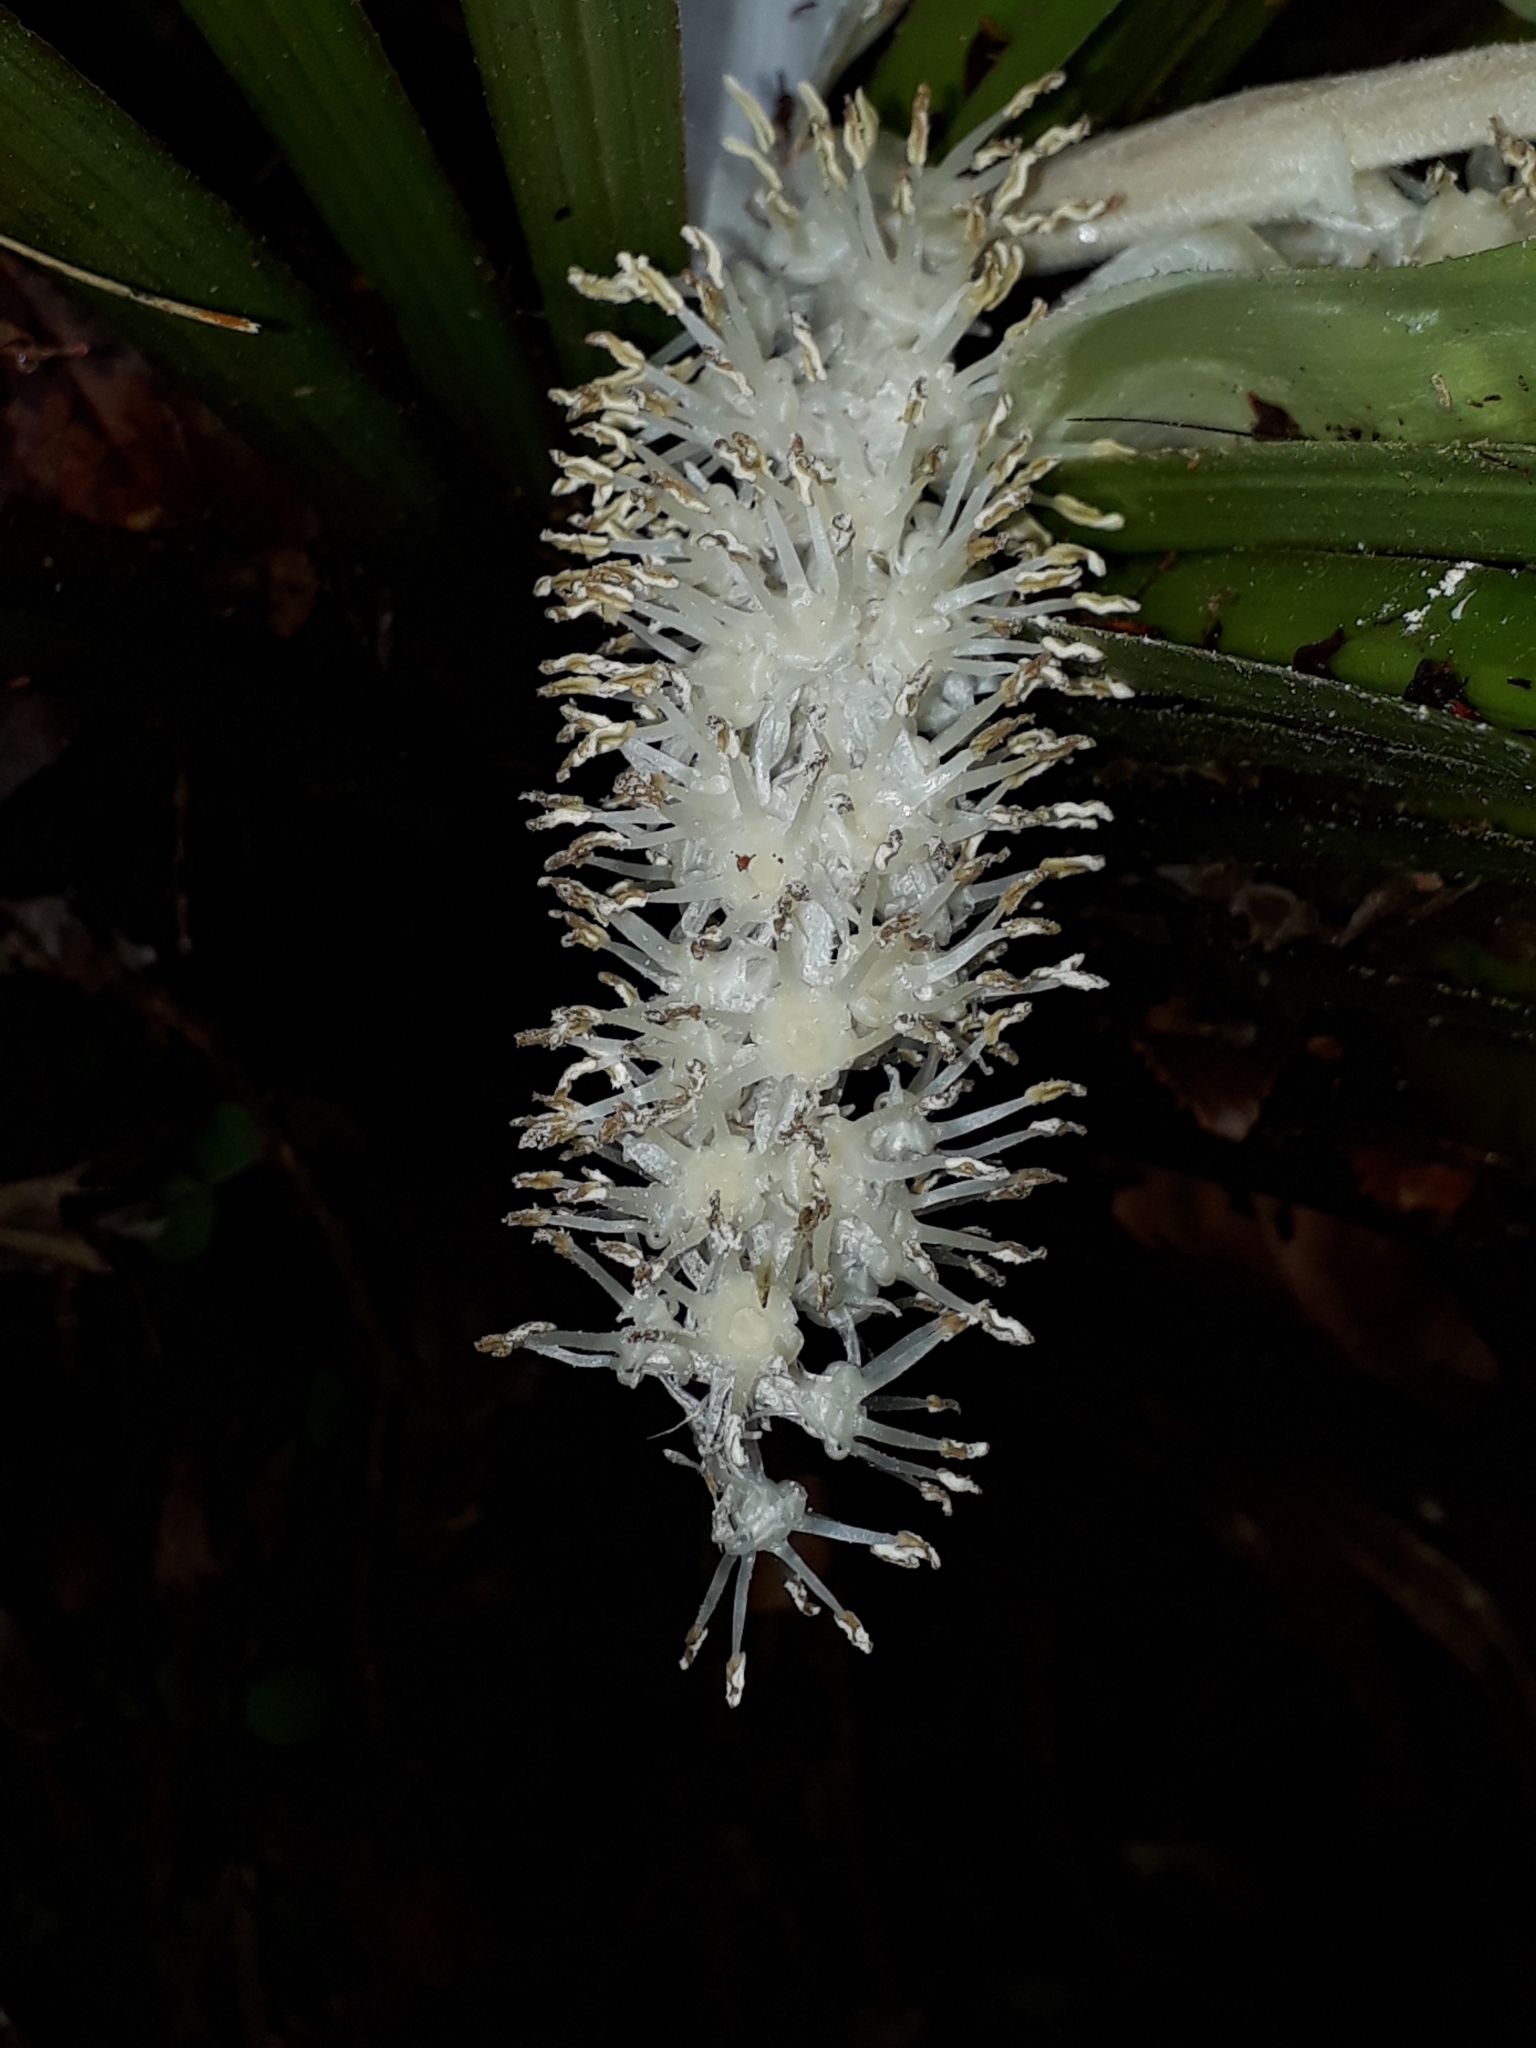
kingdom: Plantae
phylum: Tracheophyta
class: Liliopsida
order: Asparagales
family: Asteliaceae
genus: Astelia
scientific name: Astelia microsperma
